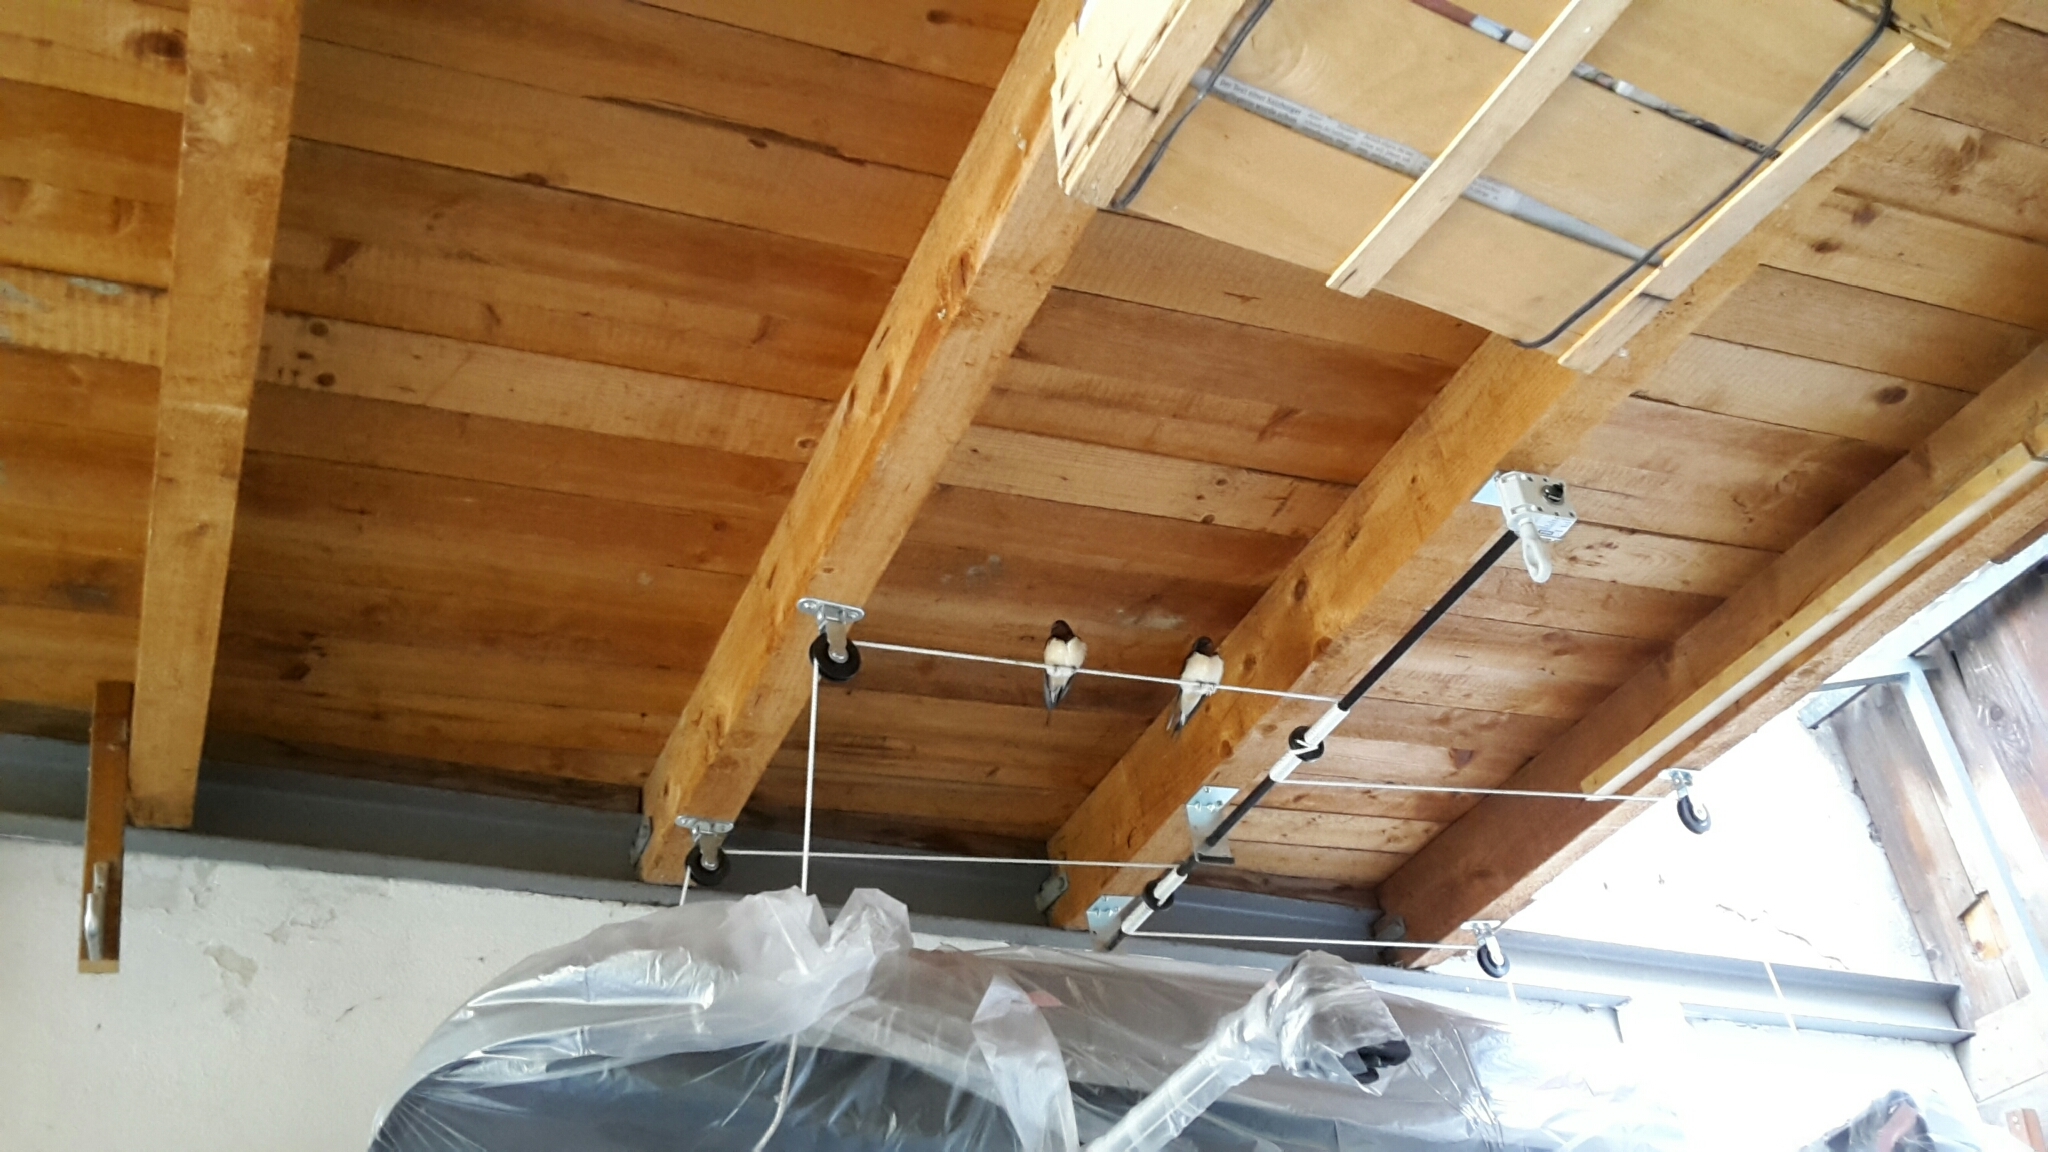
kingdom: Animalia
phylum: Chordata
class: Aves
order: Passeriformes
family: Hirundinidae
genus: Hirundo
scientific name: Hirundo rustica
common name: Barn swallow
